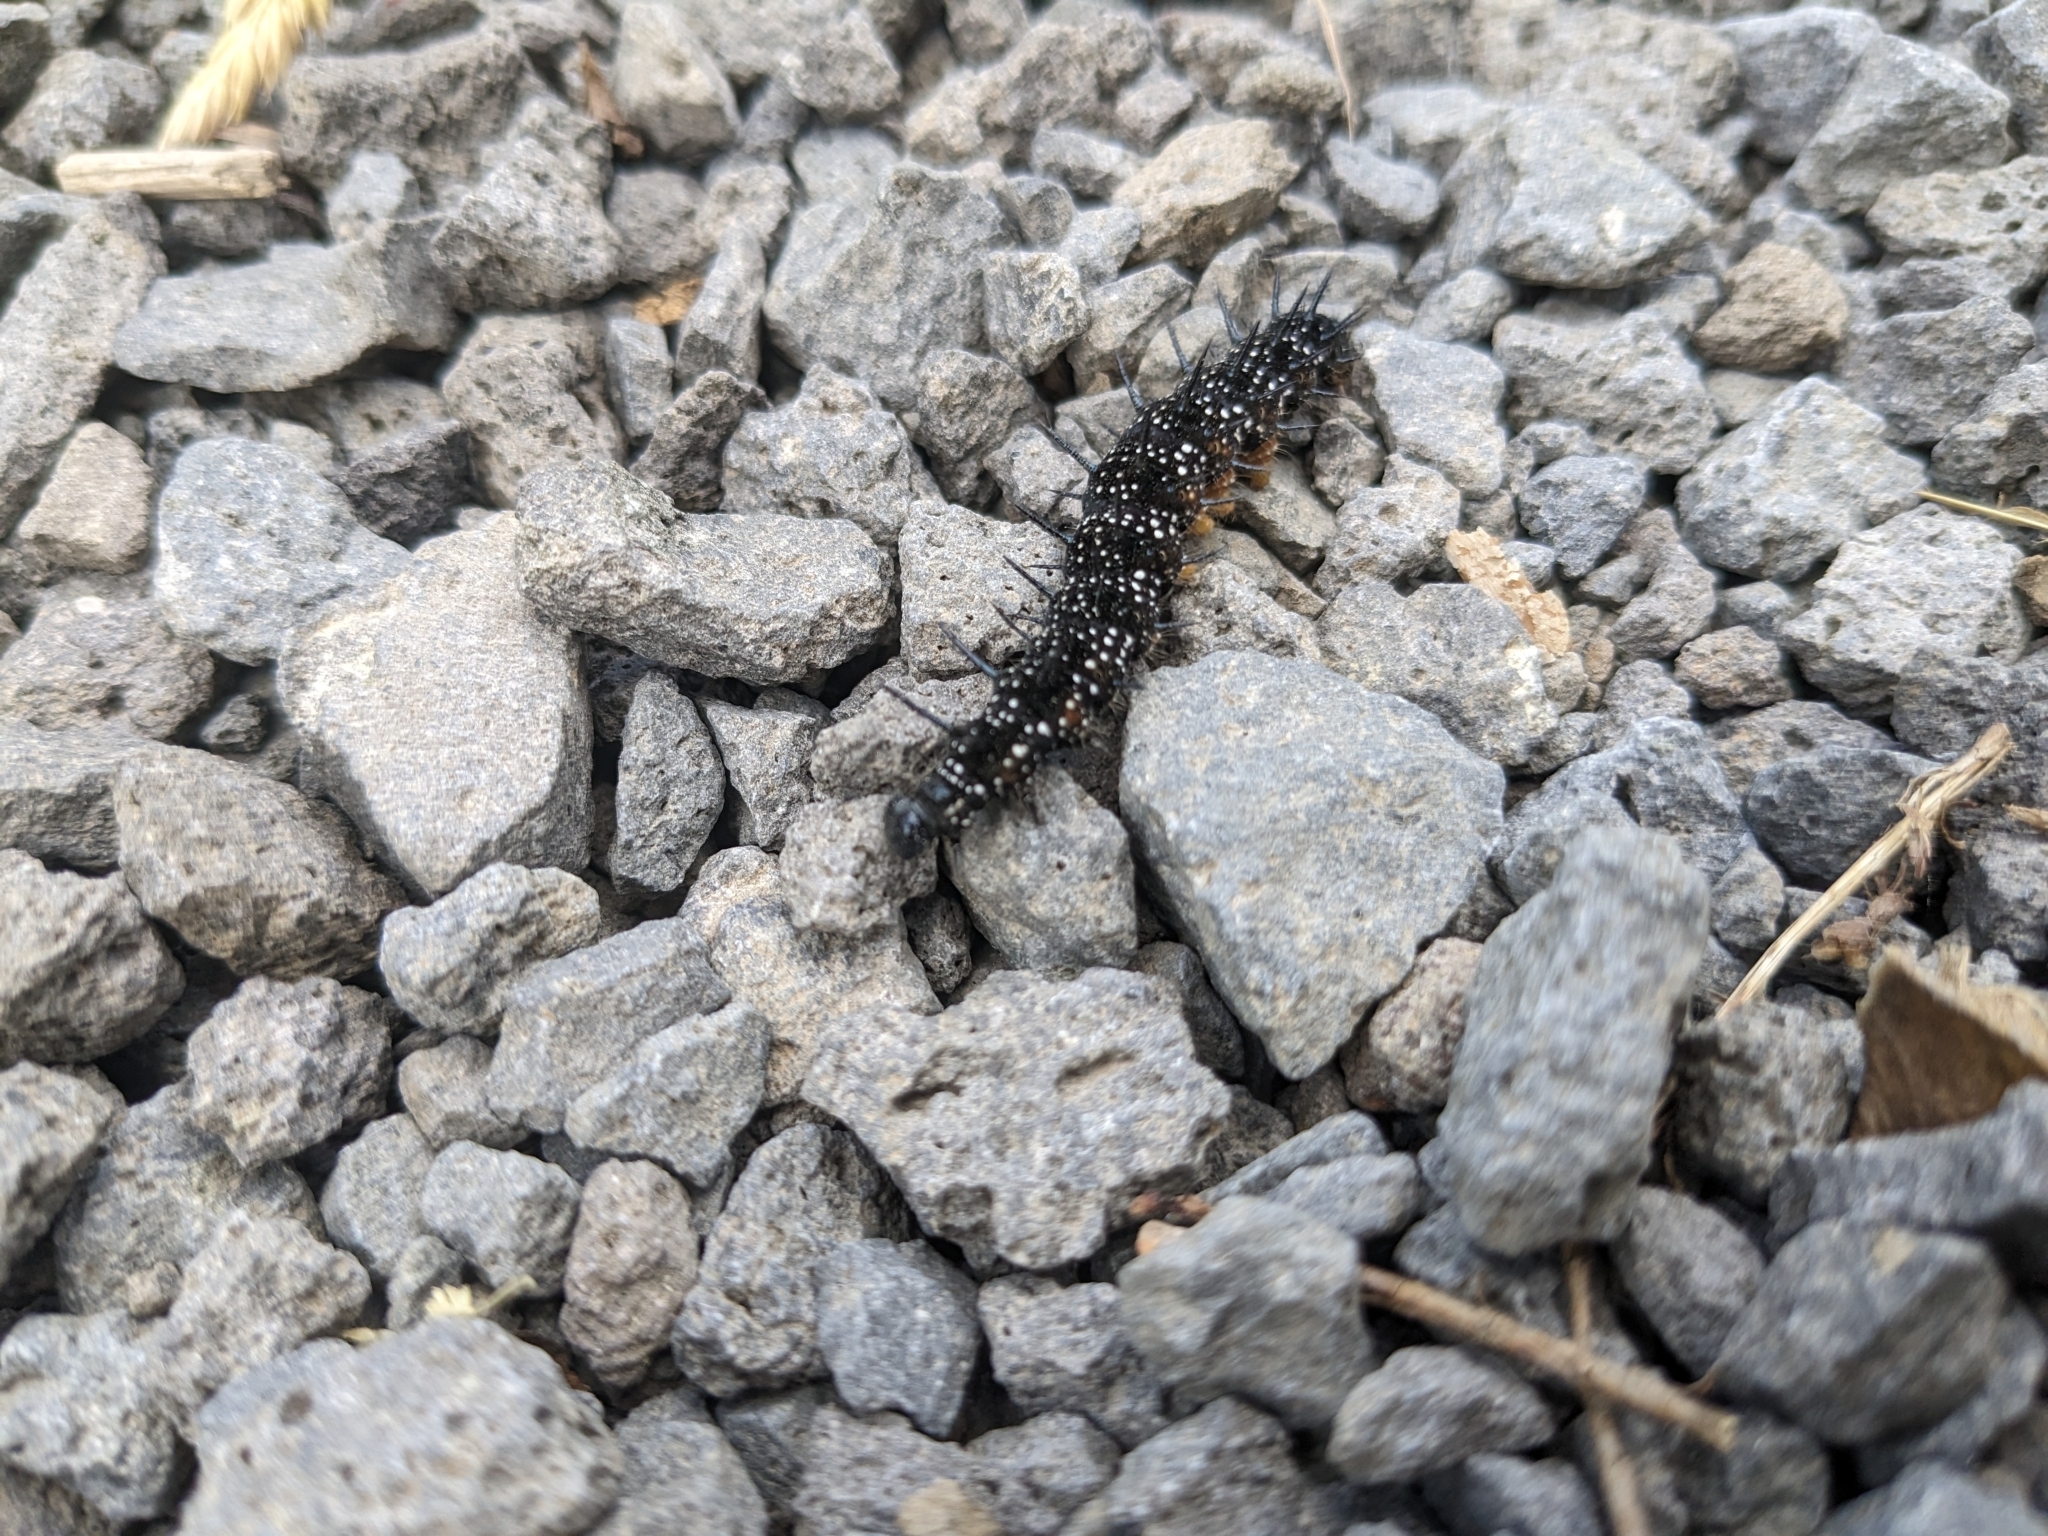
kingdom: Animalia
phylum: Arthropoda
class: Insecta
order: Lepidoptera
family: Nymphalidae
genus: Aglais
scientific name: Aglais io
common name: Peacock
